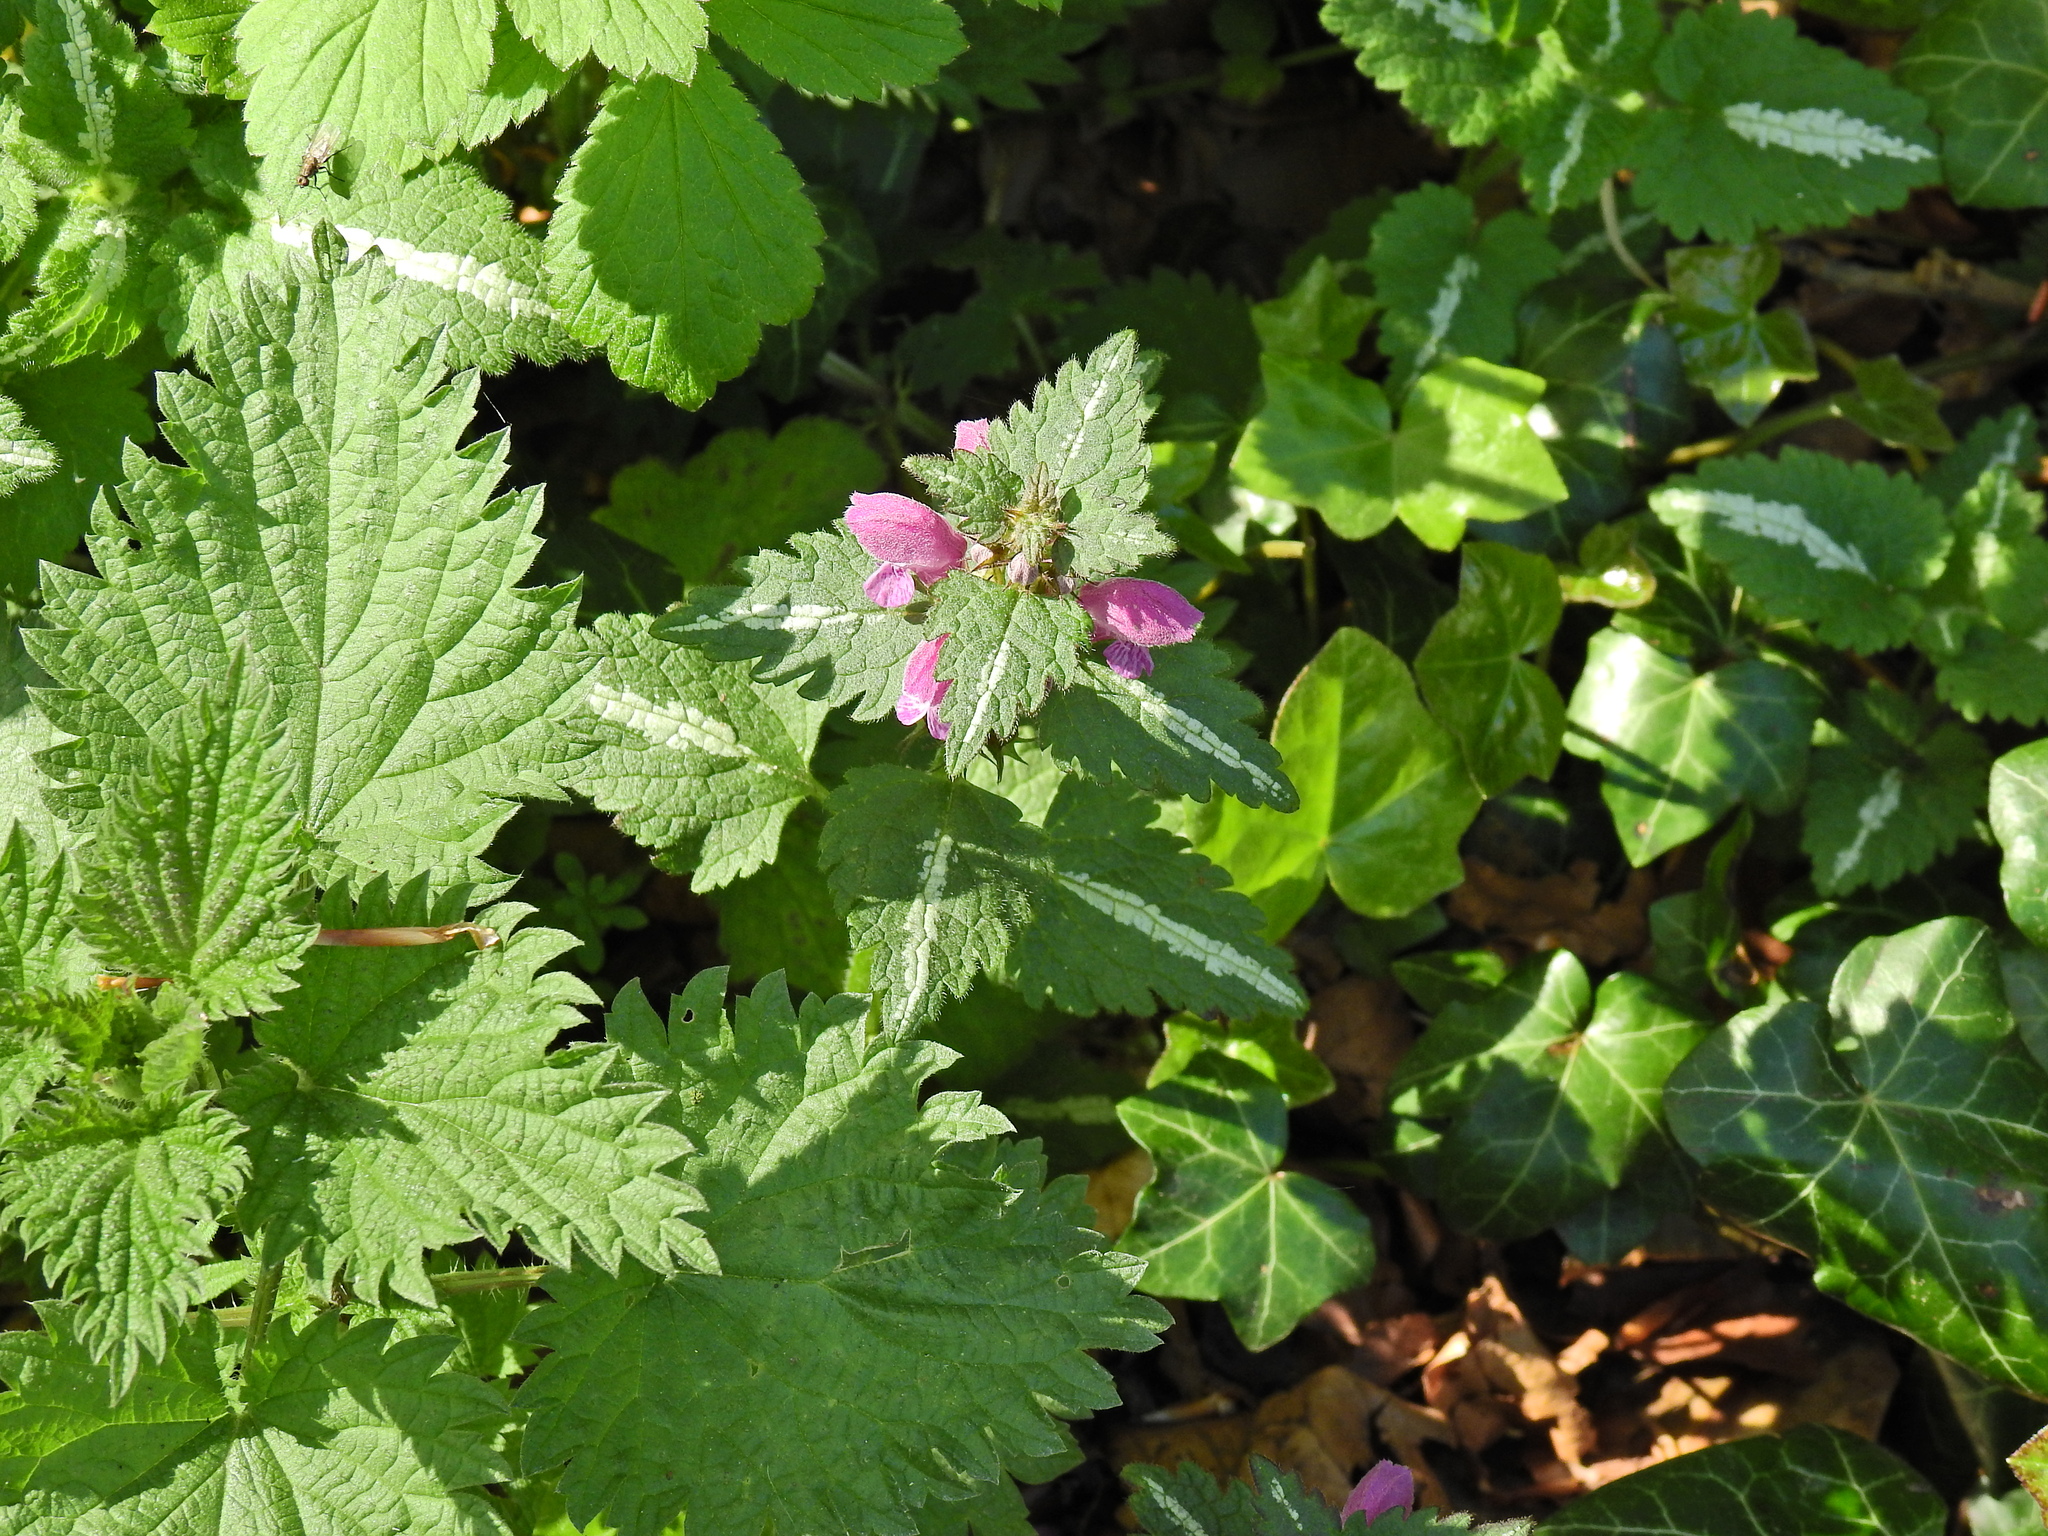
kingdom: Plantae
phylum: Tracheophyta
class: Magnoliopsida
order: Lamiales
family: Lamiaceae
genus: Lamium
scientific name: Lamium maculatum
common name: Spotted dead-nettle
